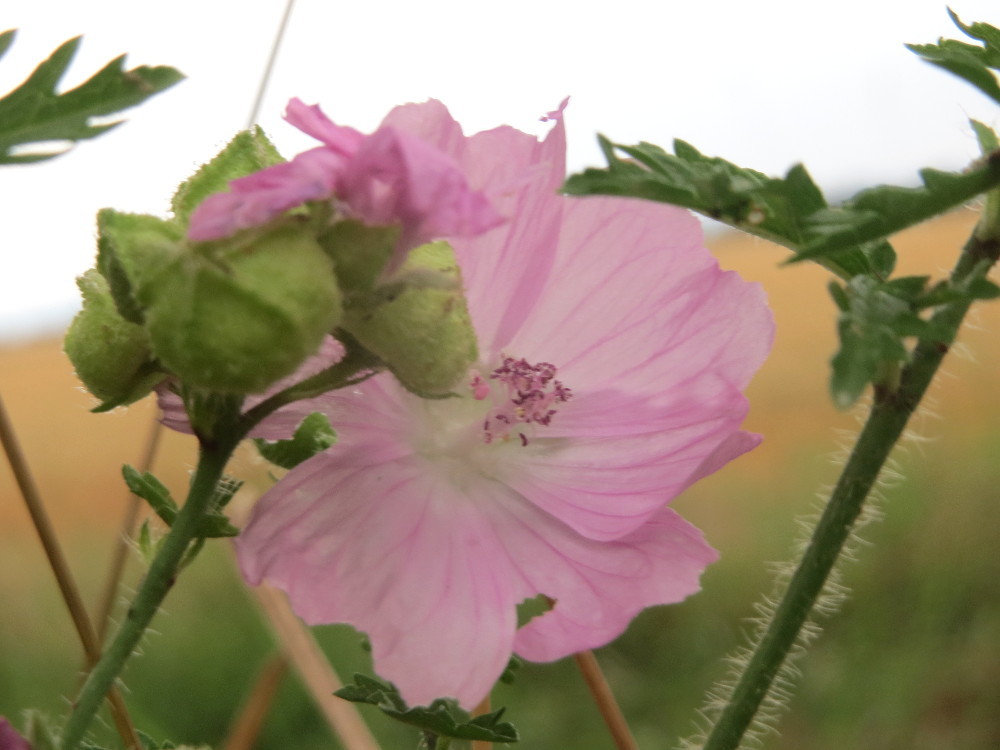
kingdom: Plantae
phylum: Tracheophyta
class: Magnoliopsida
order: Malvales
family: Malvaceae
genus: Malva
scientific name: Malva moschata
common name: Musk mallow
